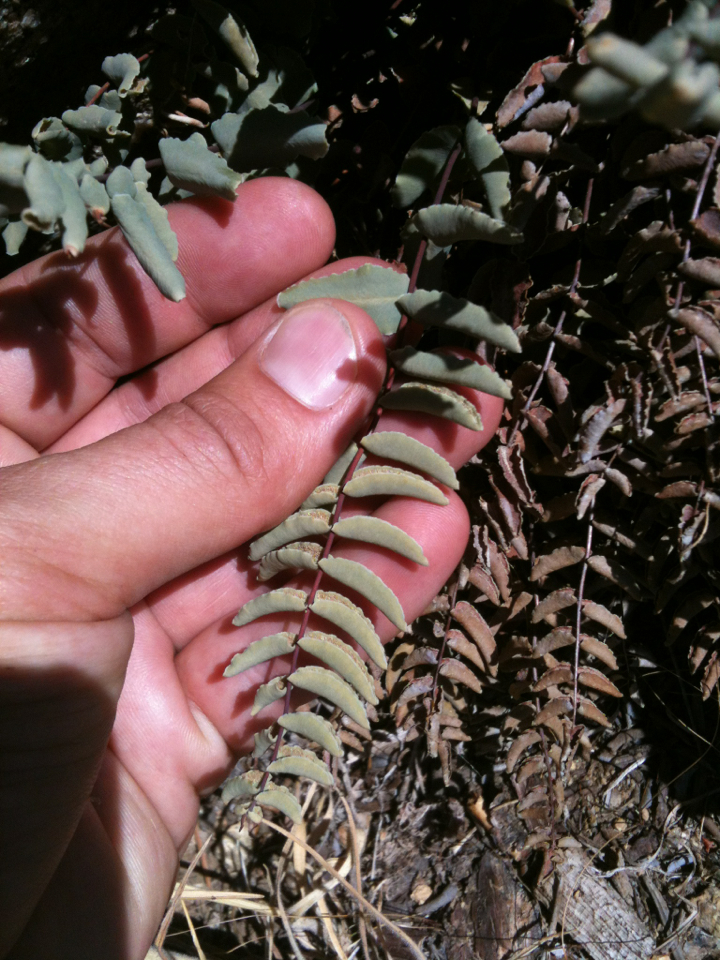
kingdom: Plantae
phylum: Tracheophyta
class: Polypodiopsida
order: Polypodiales
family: Pteridaceae
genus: Pellaea
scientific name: Pellaea bridgesii
